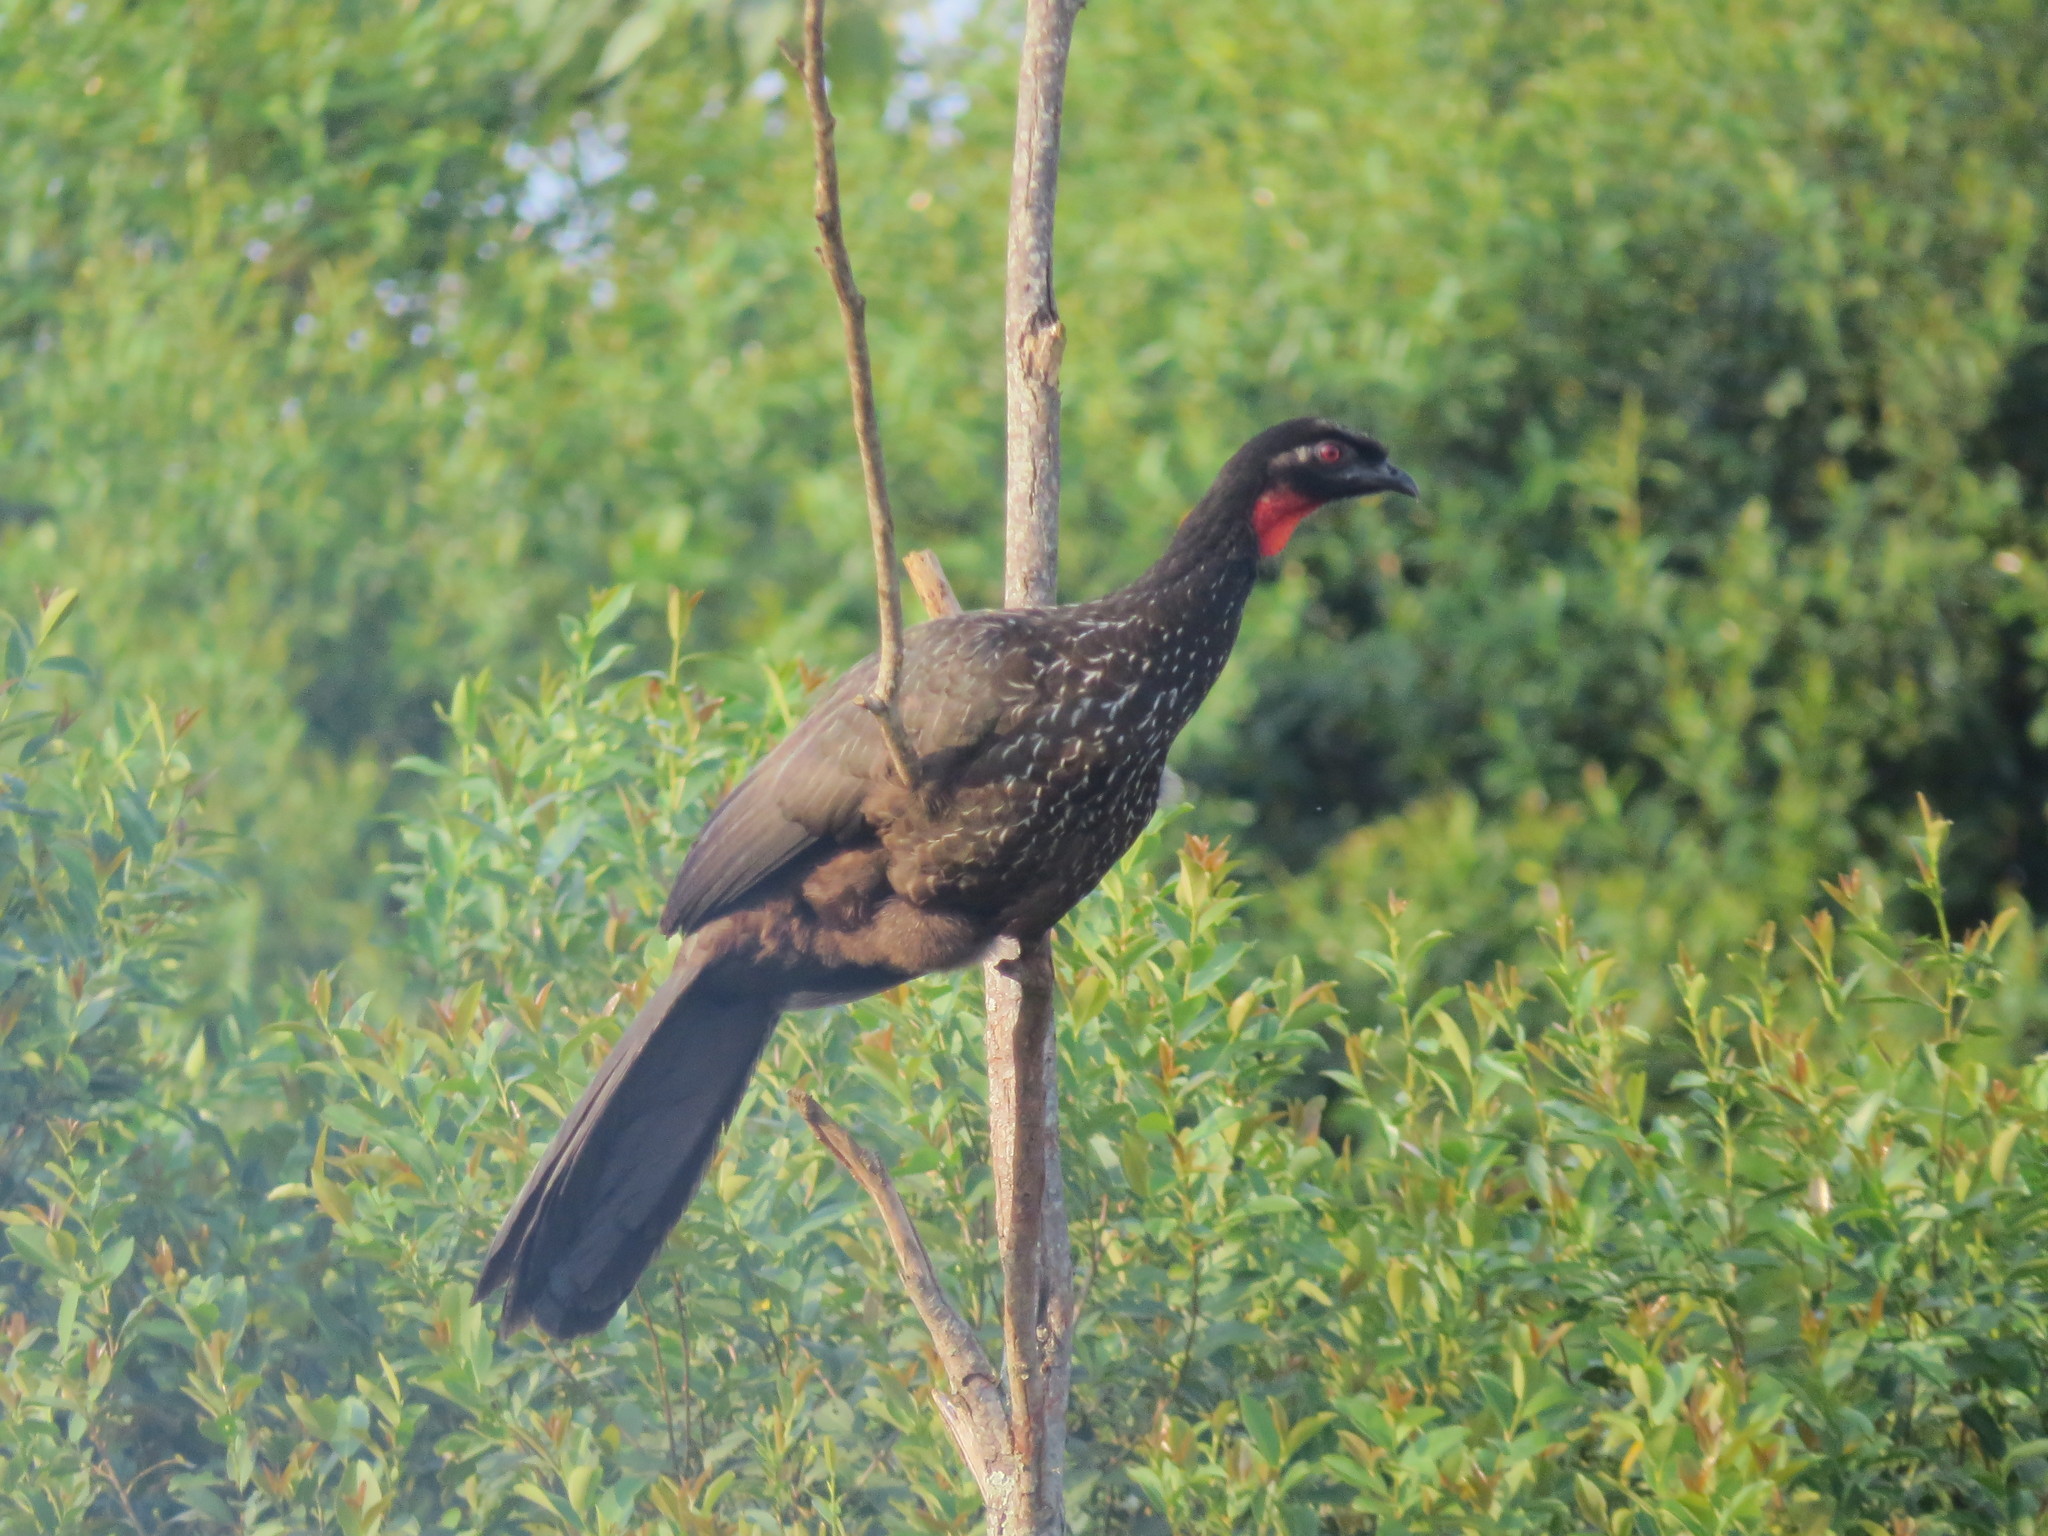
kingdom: Animalia
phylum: Chordata
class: Aves
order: Galliformes
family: Cracidae
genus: Penelope
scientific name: Penelope obscura
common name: Dusky-legged guan
